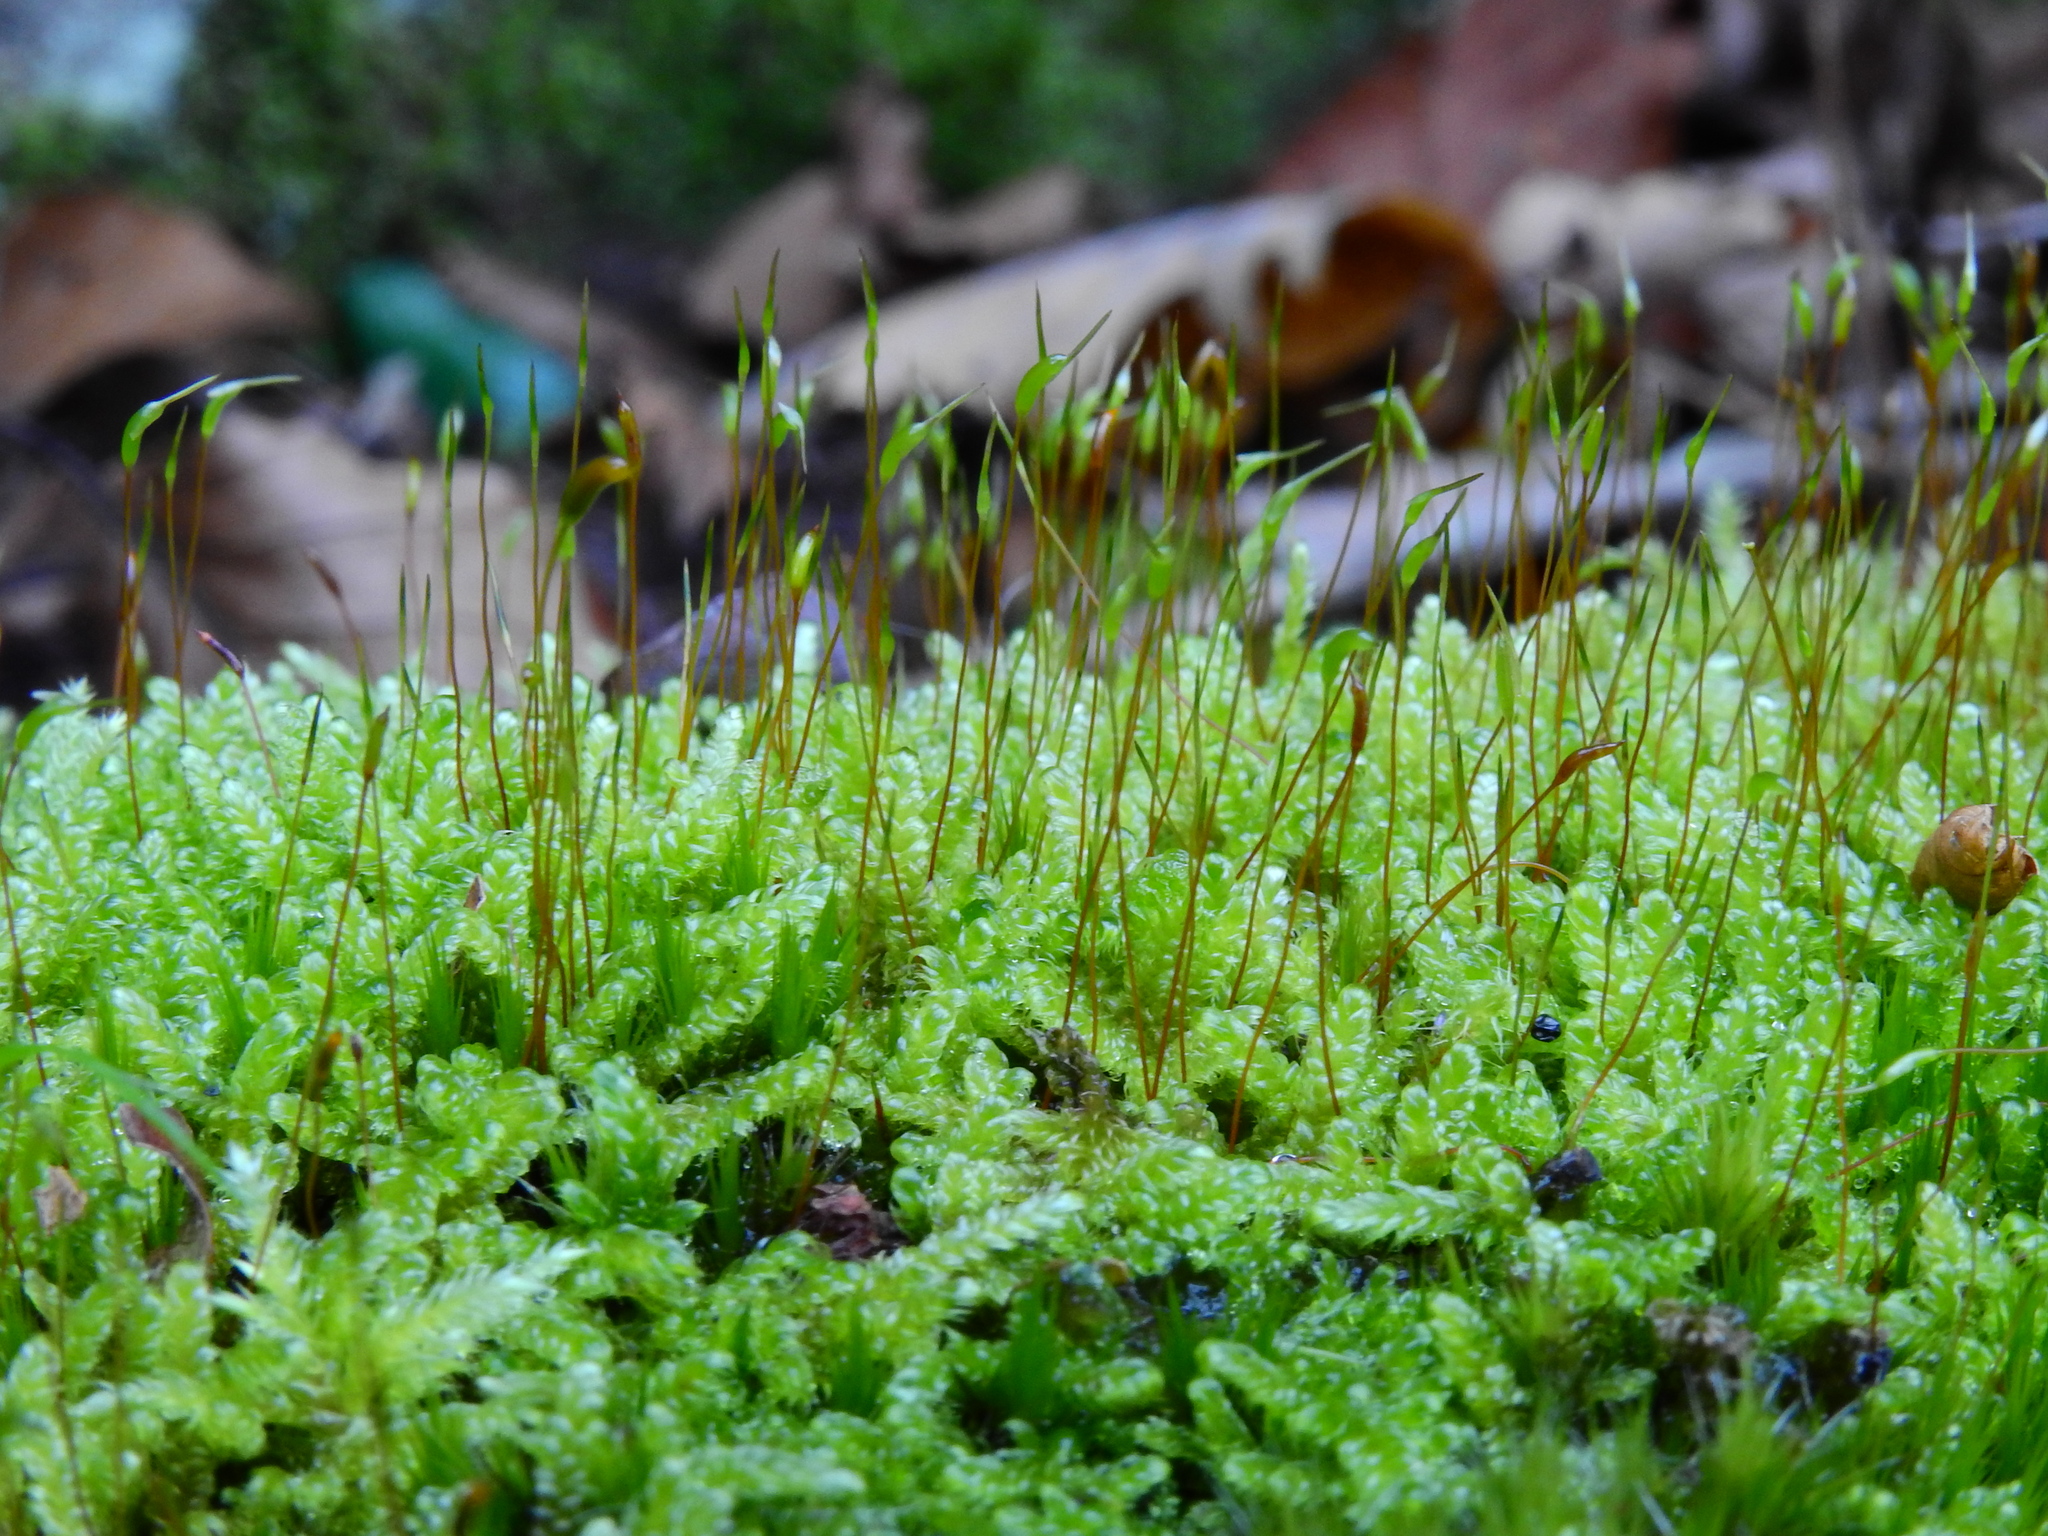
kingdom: Plantae
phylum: Bryophyta
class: Bryopsida
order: Hypnales
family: Hypnaceae
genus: Hypnum
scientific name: Hypnum cupressiforme
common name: Cypress-leaved plait-moss
